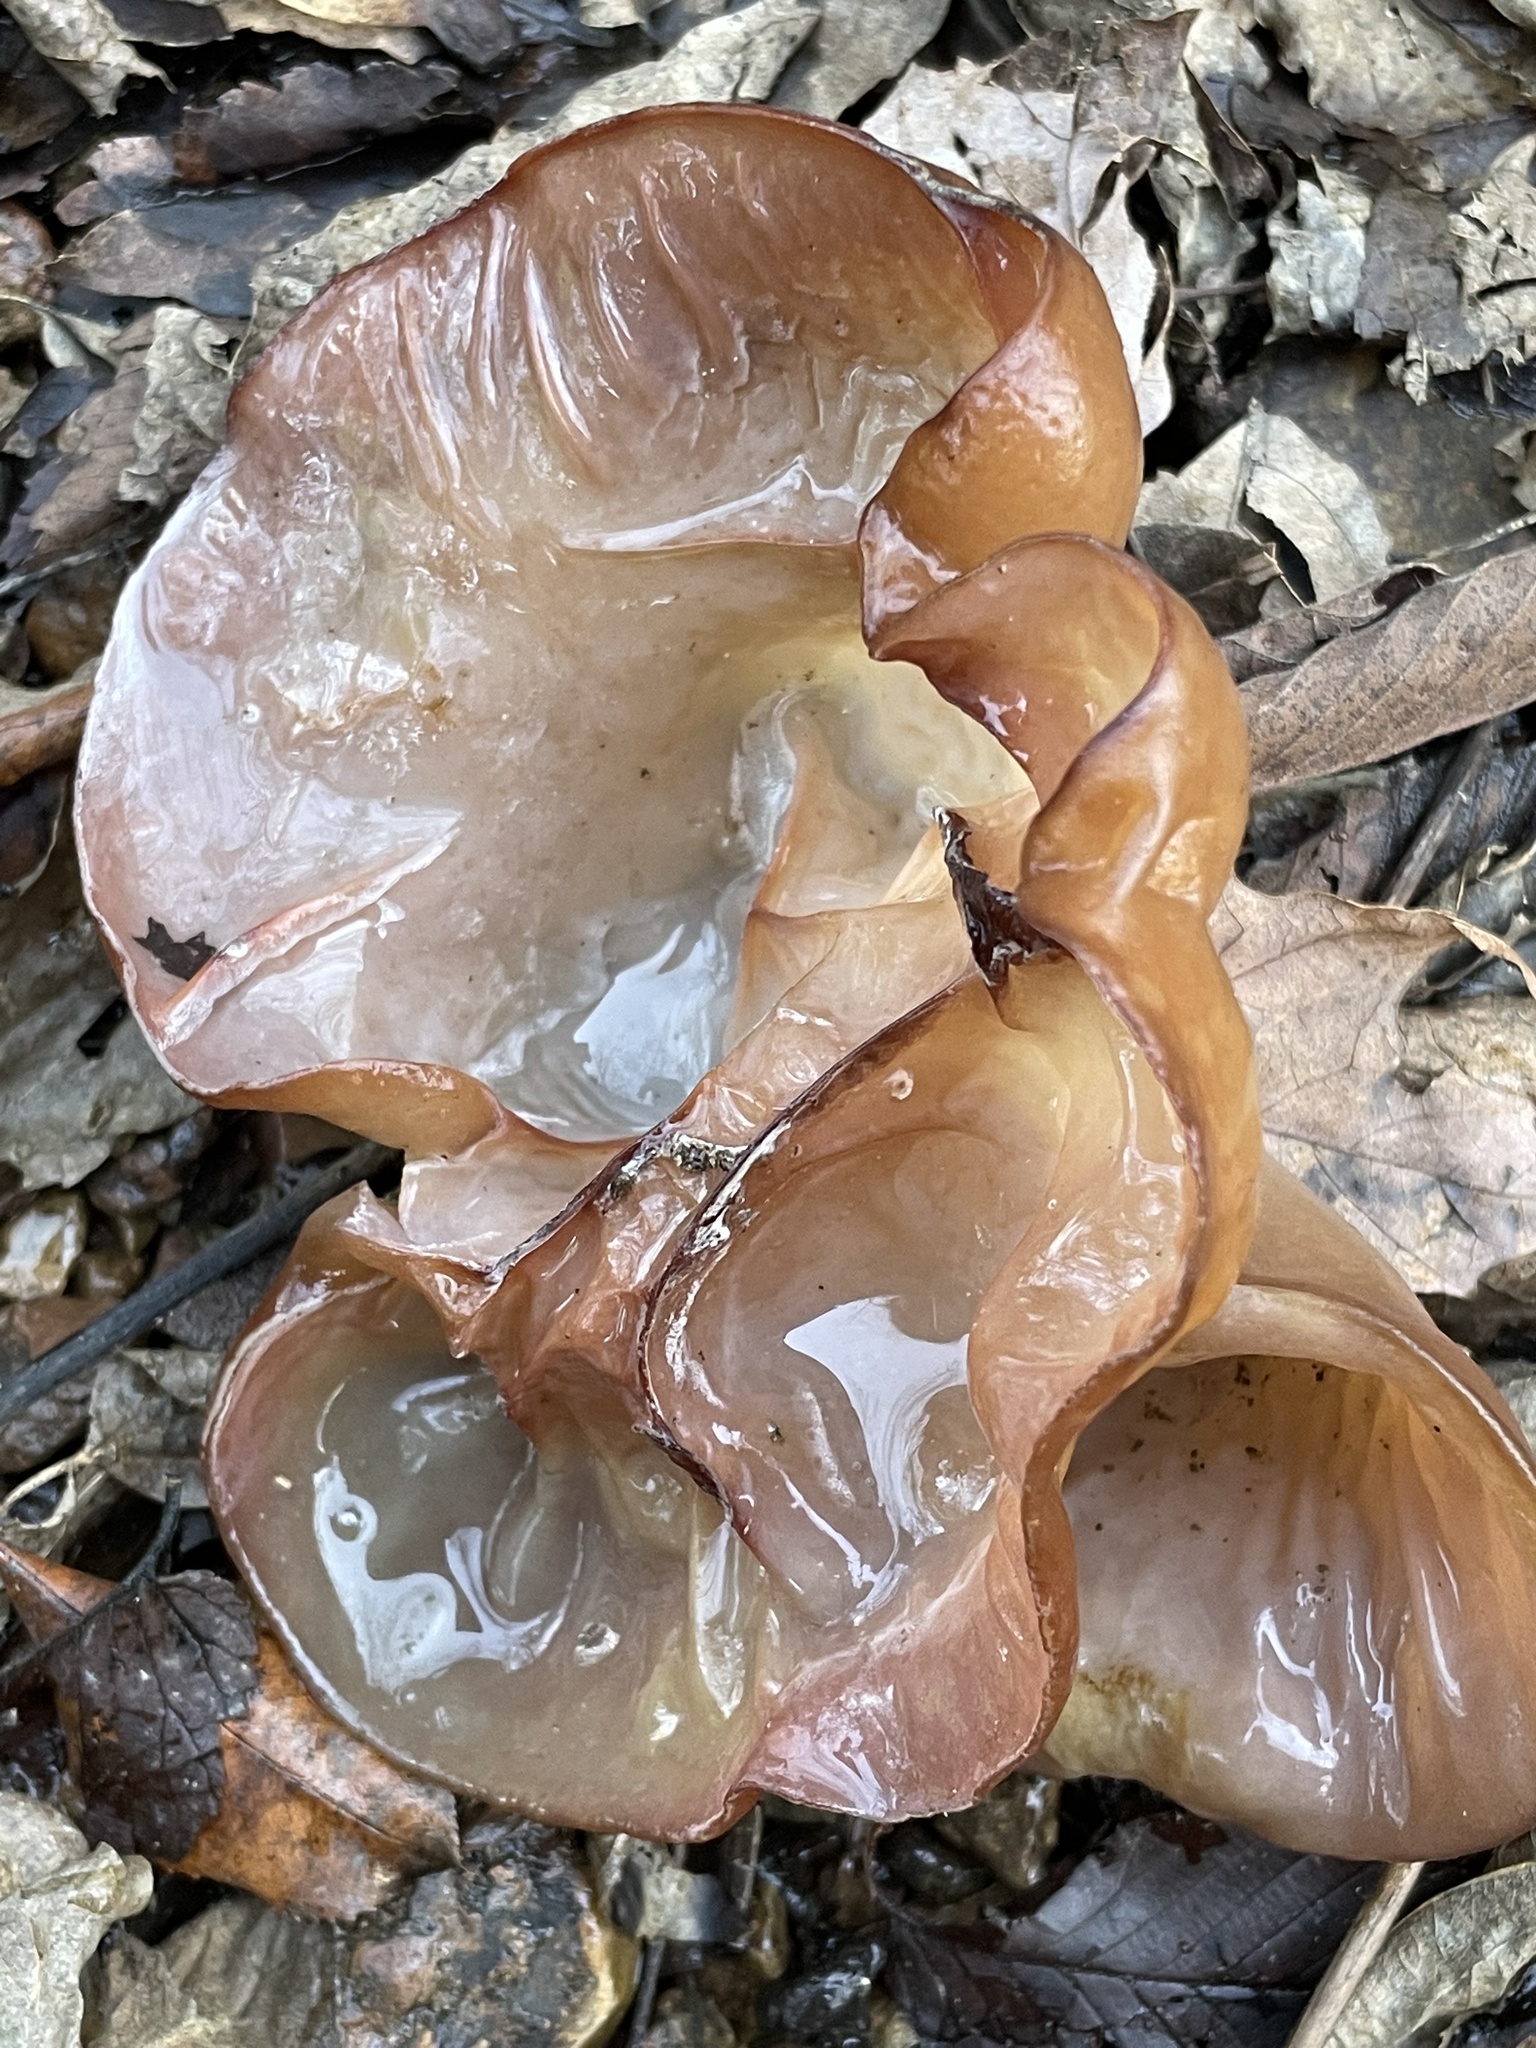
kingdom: Fungi
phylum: Basidiomycota
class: Agaricomycetes
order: Auriculariales
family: Auriculariaceae
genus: Auricularia
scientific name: Auricularia americana
